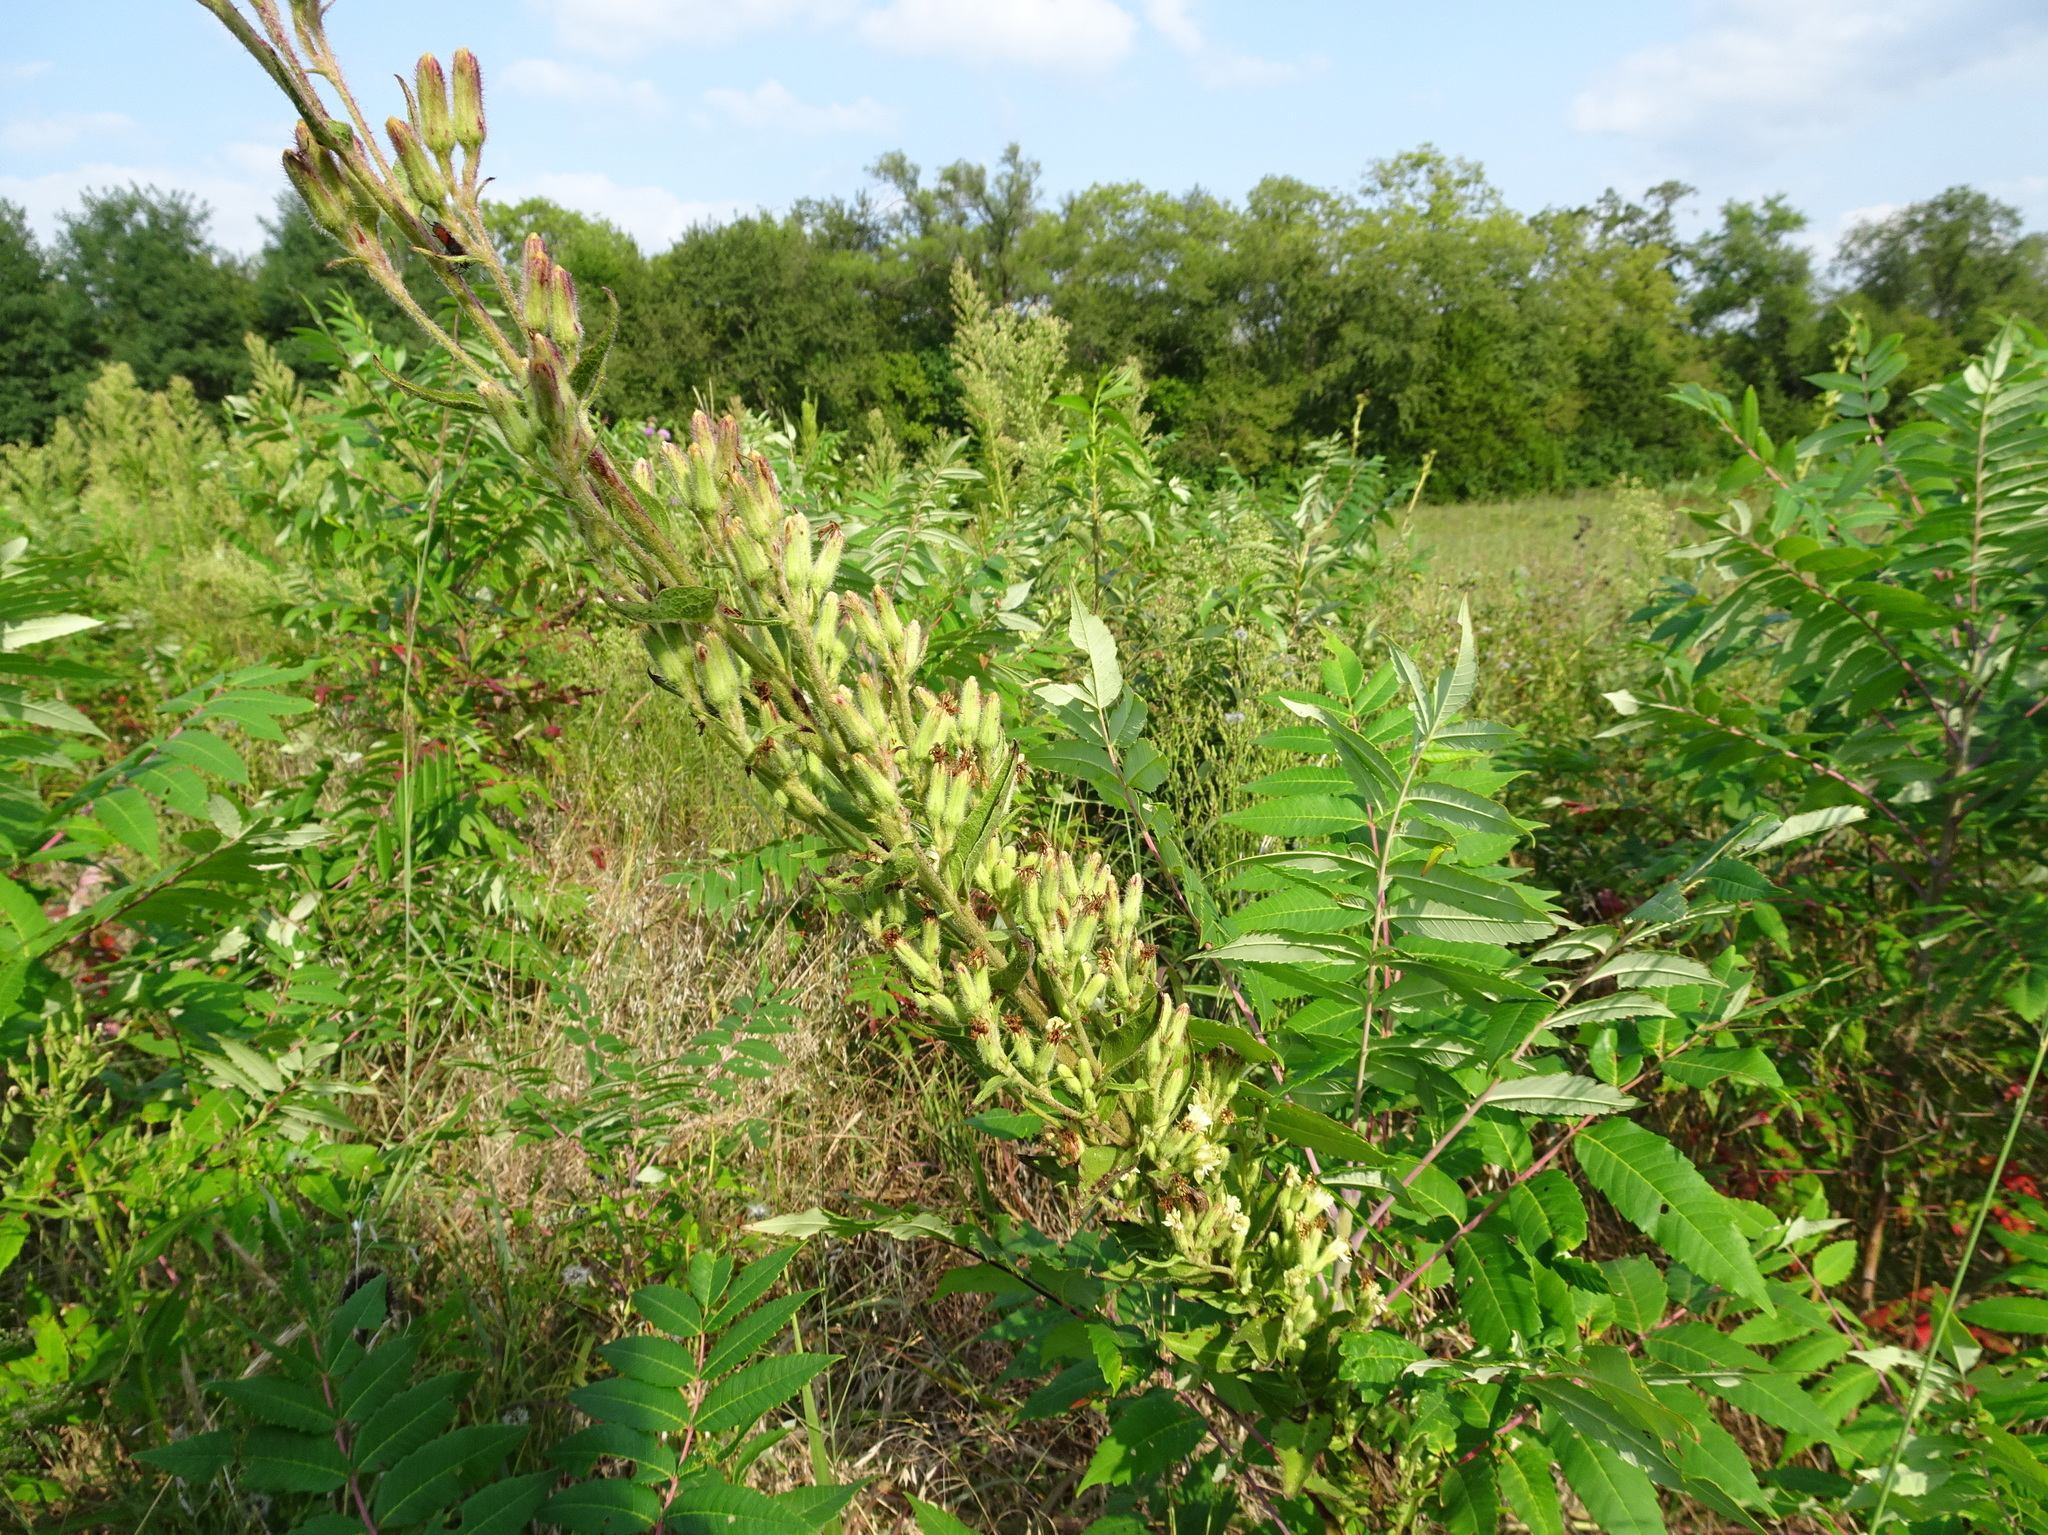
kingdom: Plantae
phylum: Tracheophyta
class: Magnoliopsida
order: Asterales
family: Asteraceae
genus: Nabalus
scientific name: Nabalus asper
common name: Rough rattlesnakeroot
